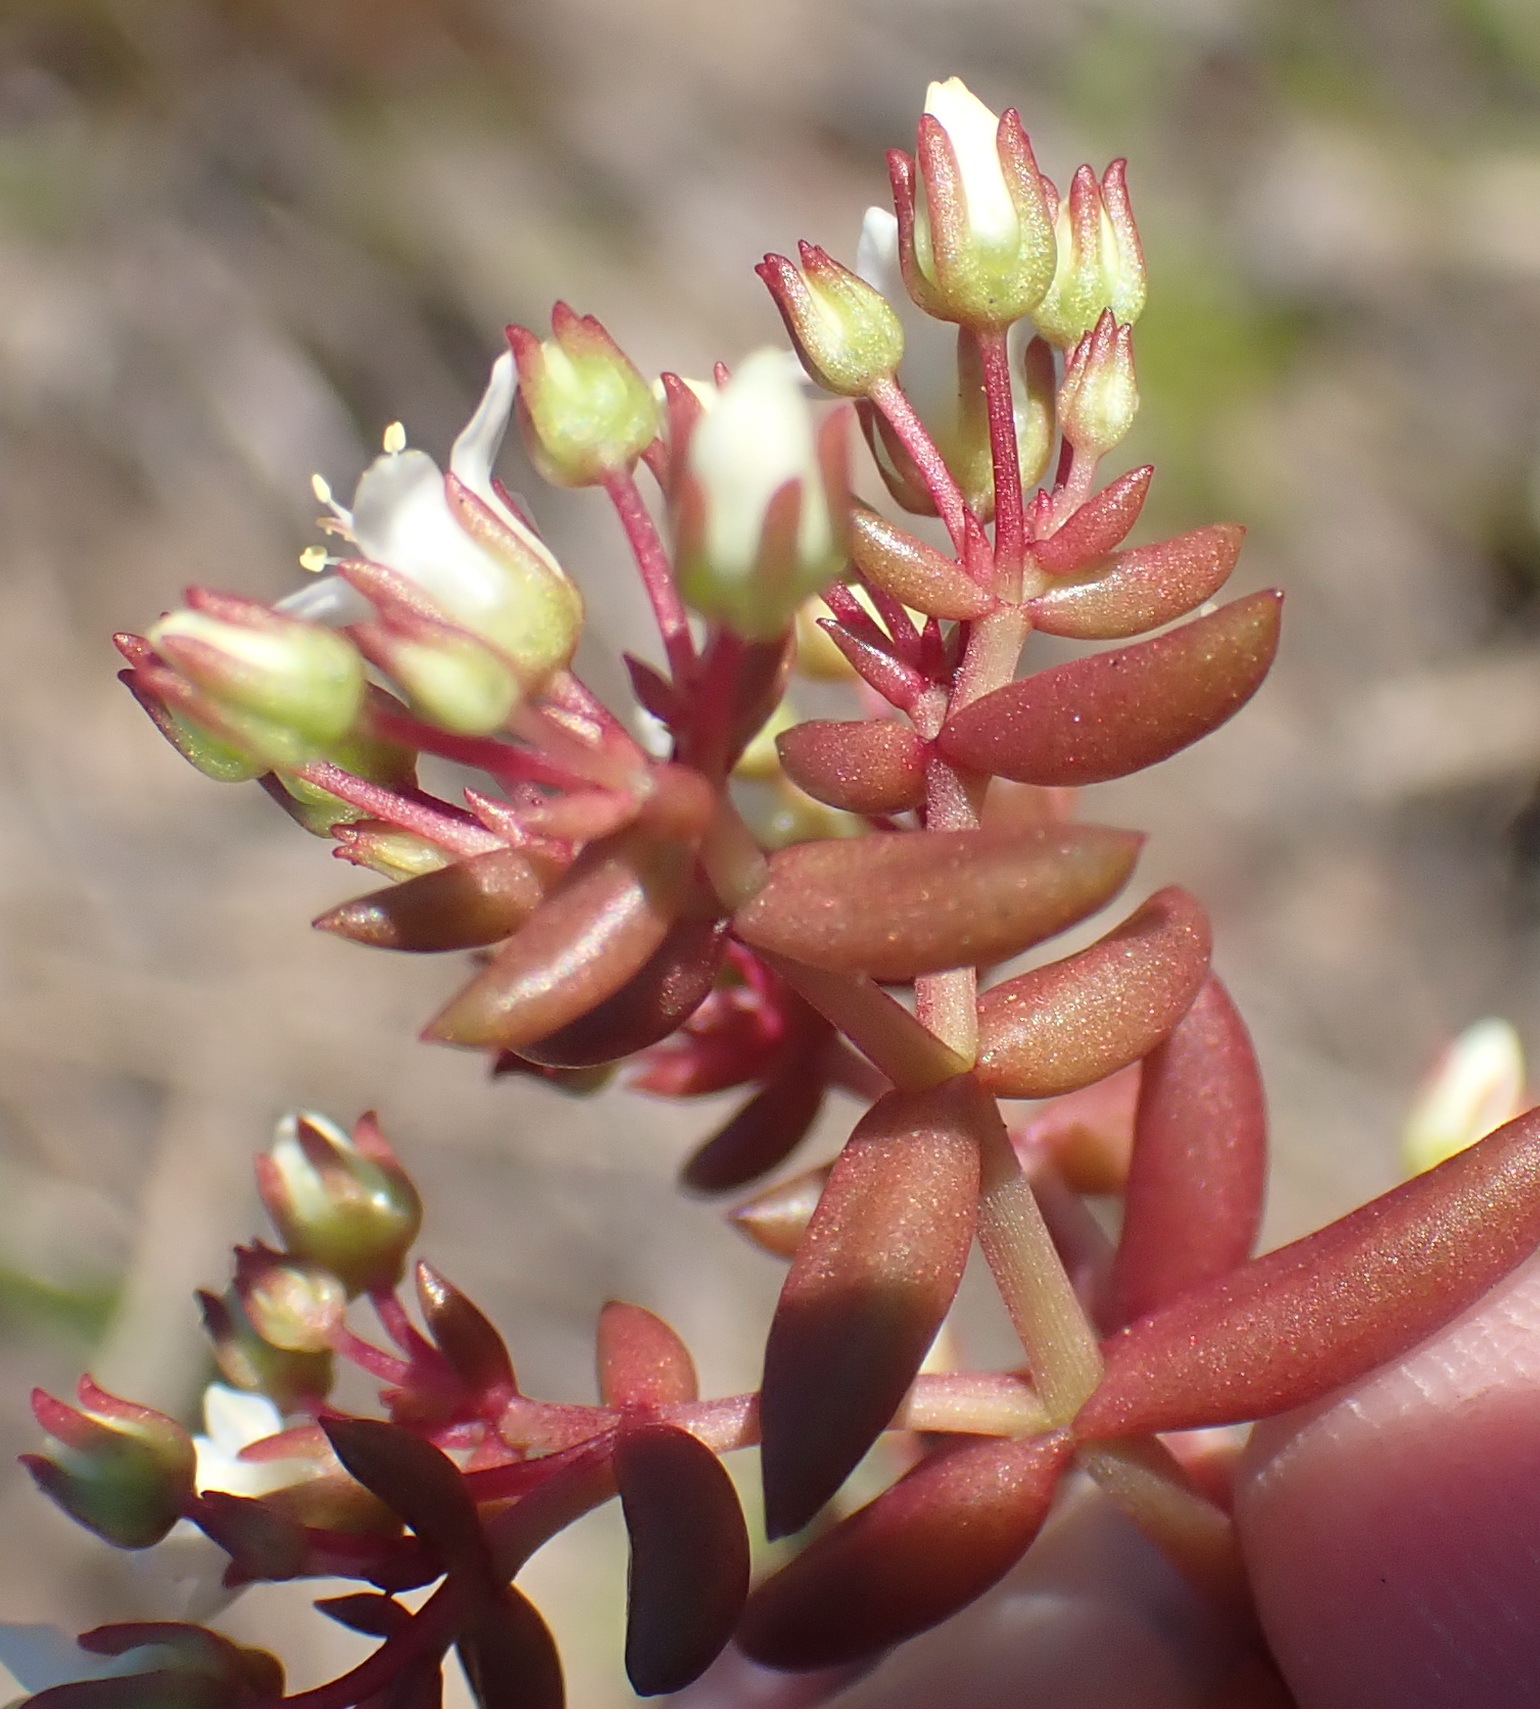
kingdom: Plantae
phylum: Tracheophyta
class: Magnoliopsida
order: Saxifragales
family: Crassulaceae
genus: Crassula
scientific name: Crassula expansa
